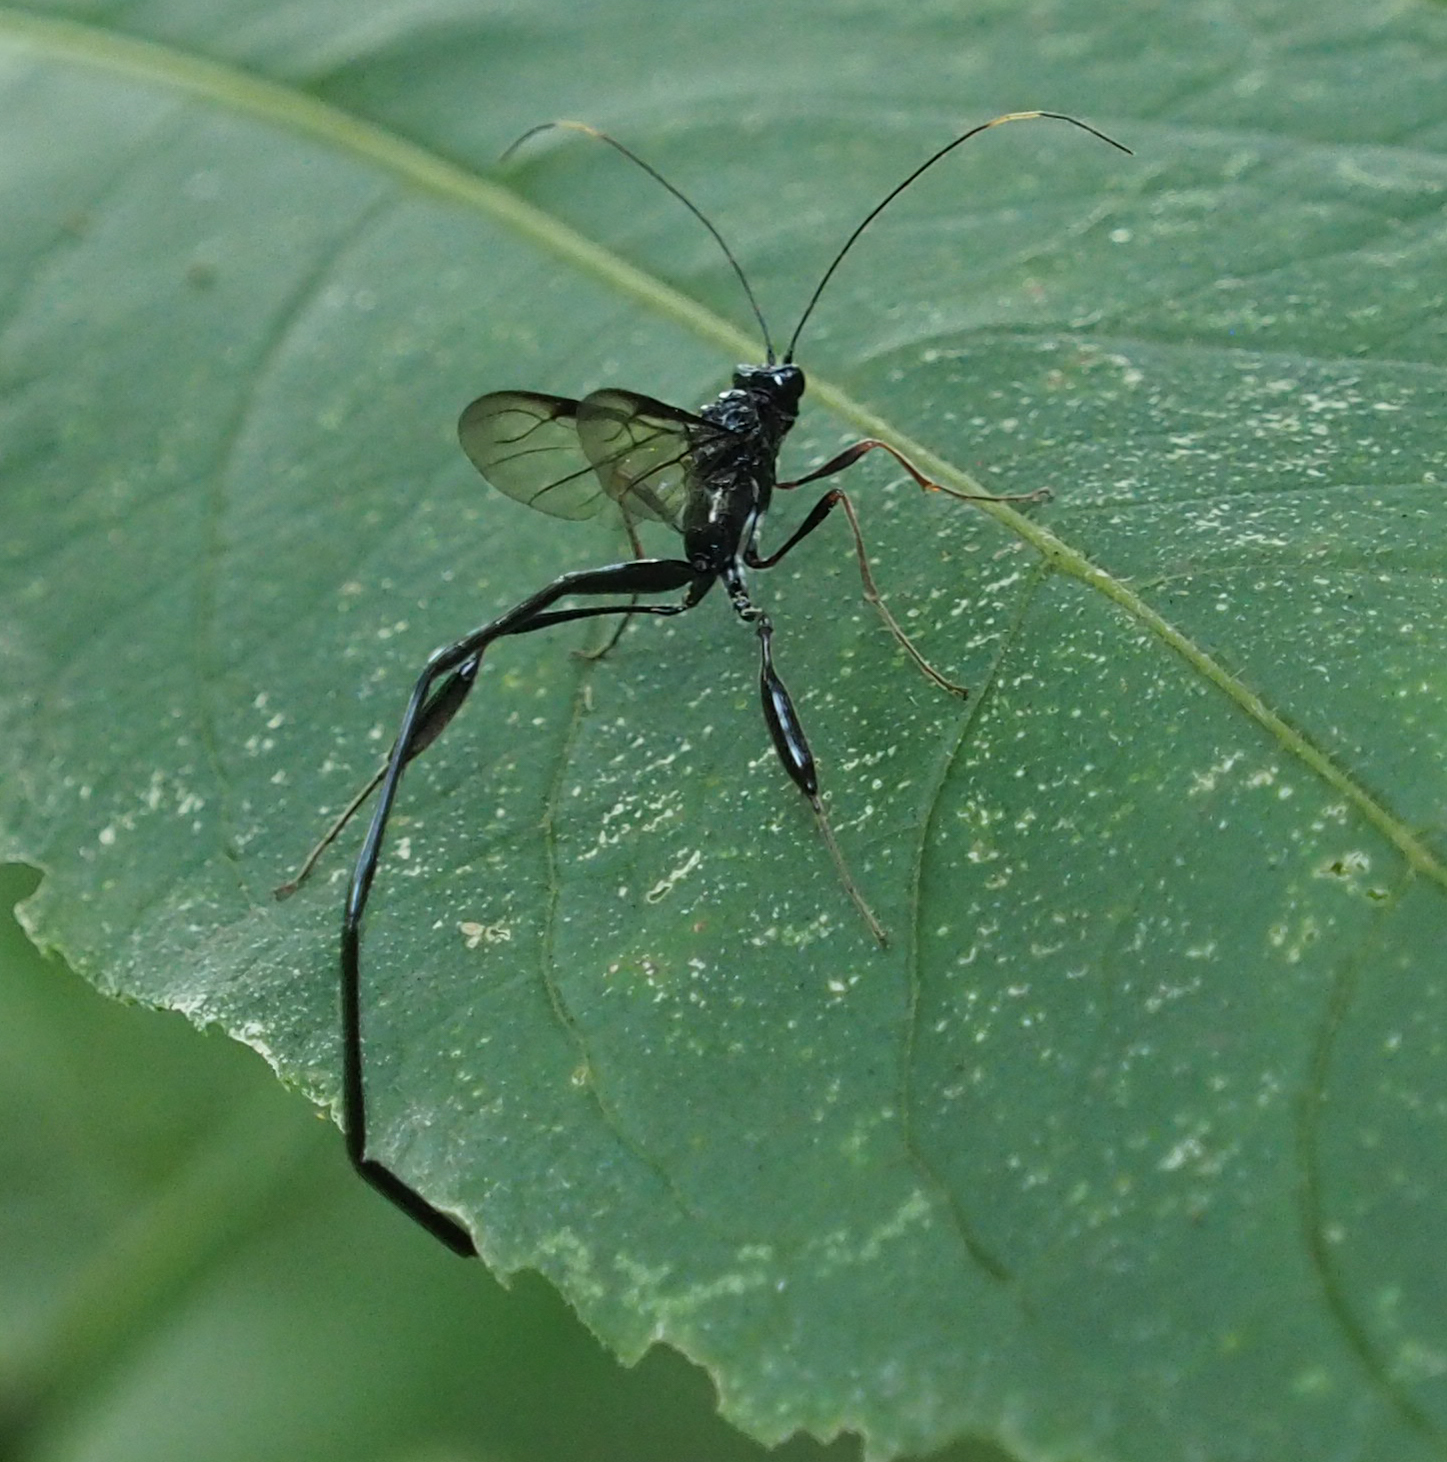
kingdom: Animalia
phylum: Arthropoda
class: Insecta
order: Hymenoptera
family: Pelecinidae
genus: Pelecinus
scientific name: Pelecinus polyturator
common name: American pelecinid wasp
